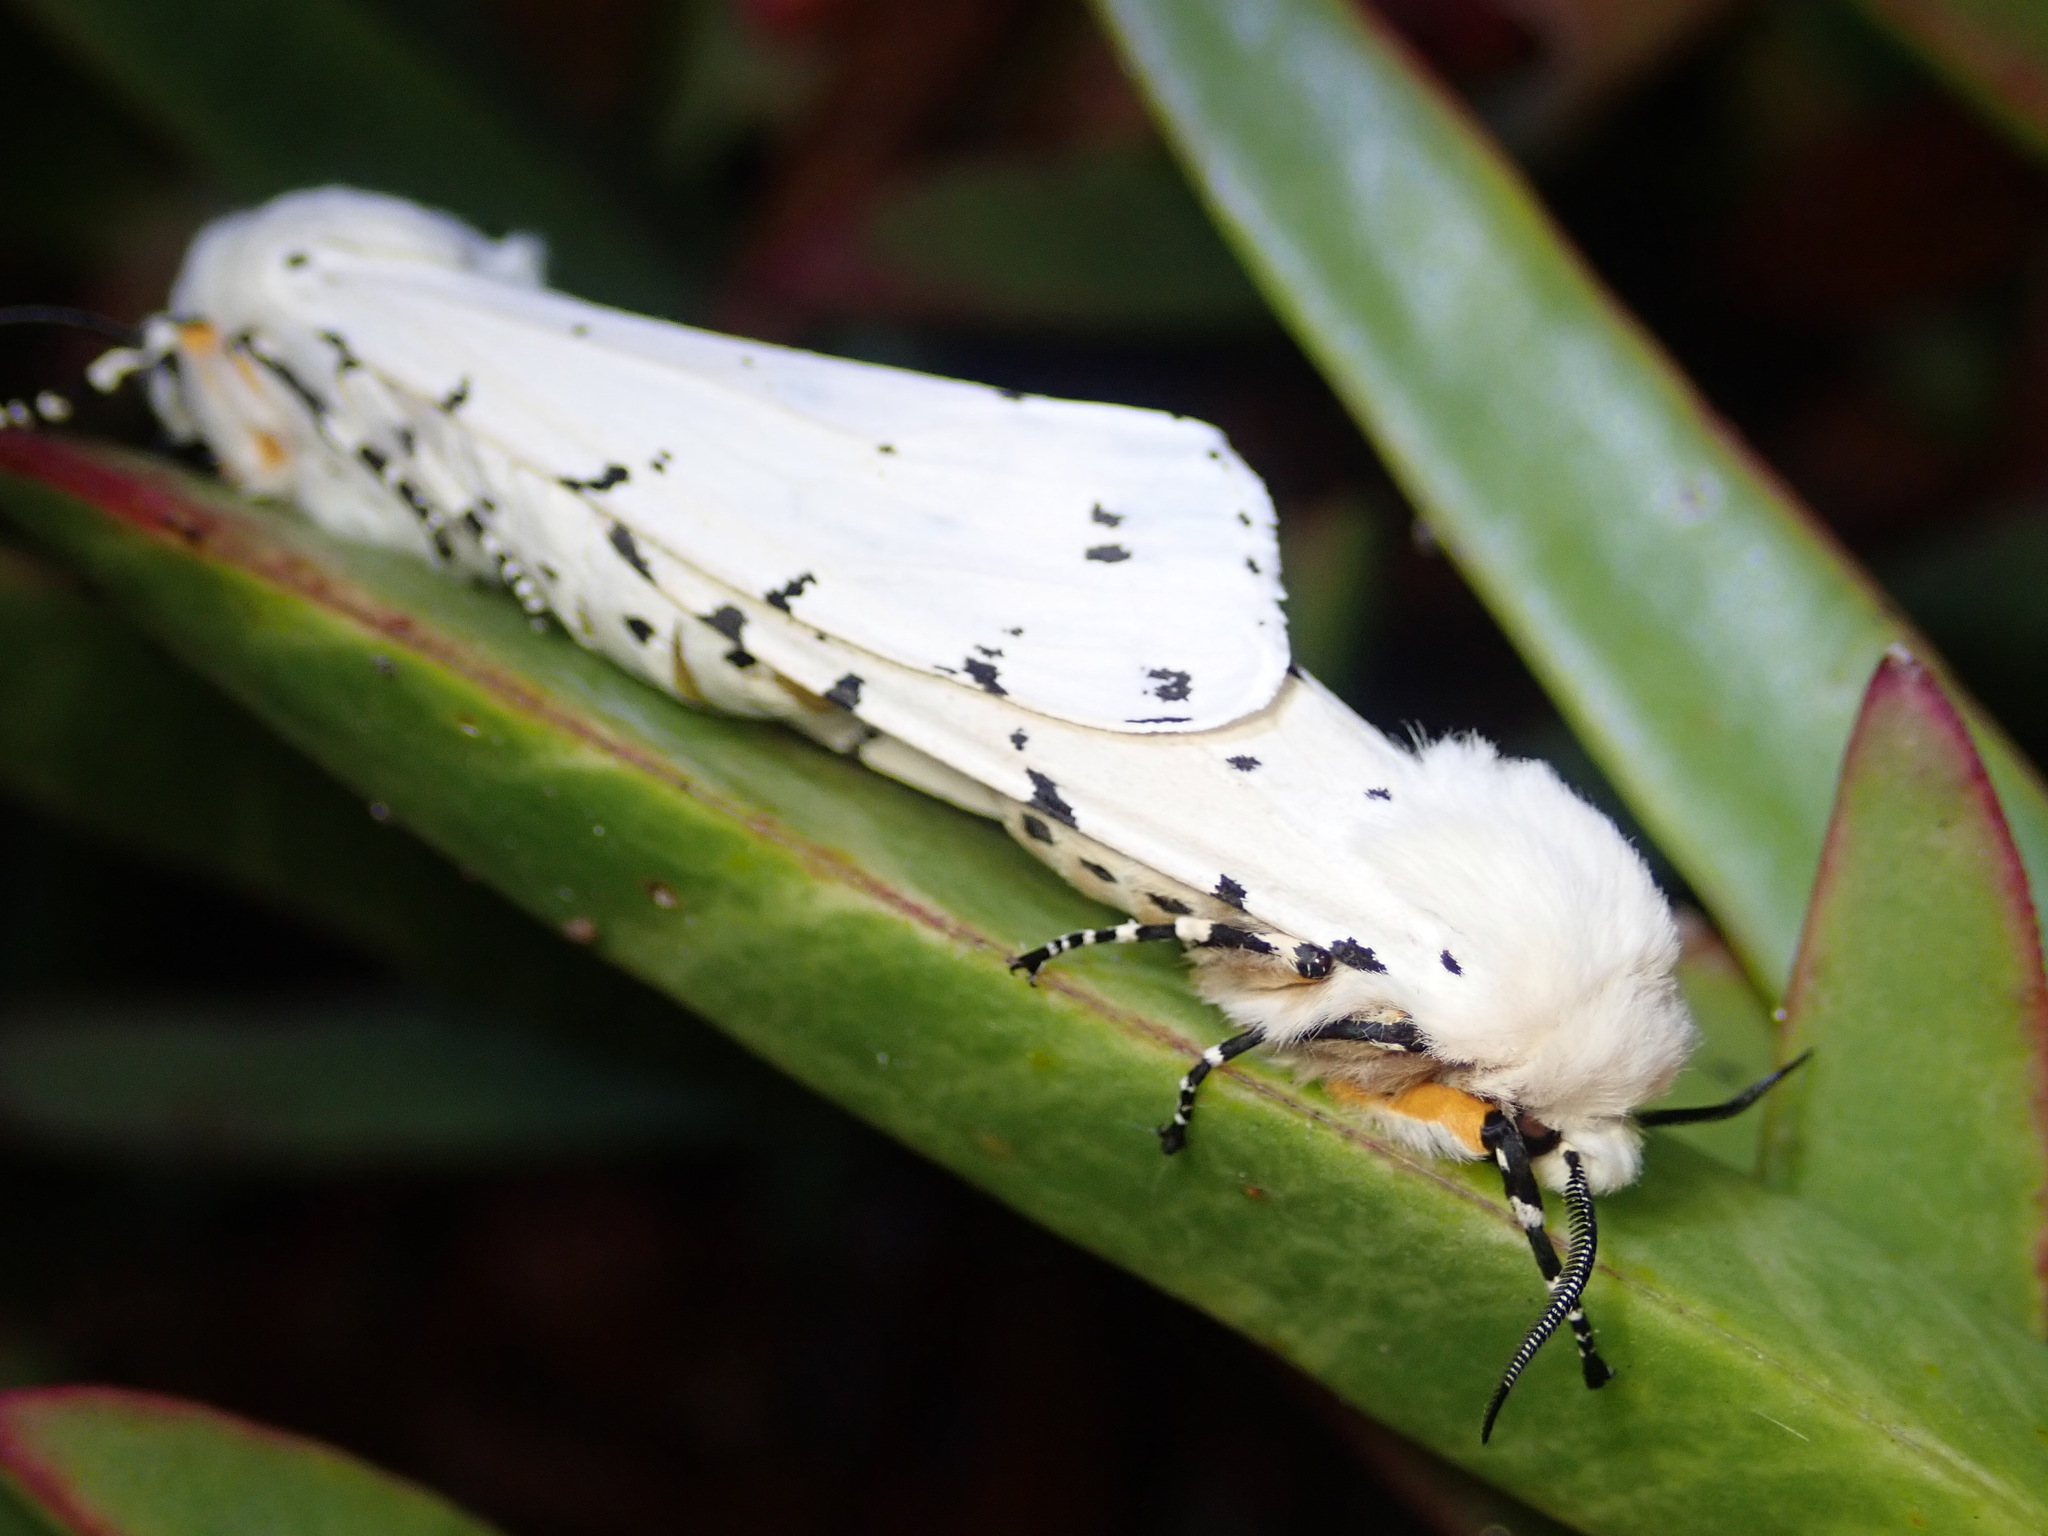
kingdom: Animalia
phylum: Arthropoda
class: Insecta
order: Lepidoptera
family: Erebidae
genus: Estigmene
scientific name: Estigmene acrea
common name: Salt marsh moth
